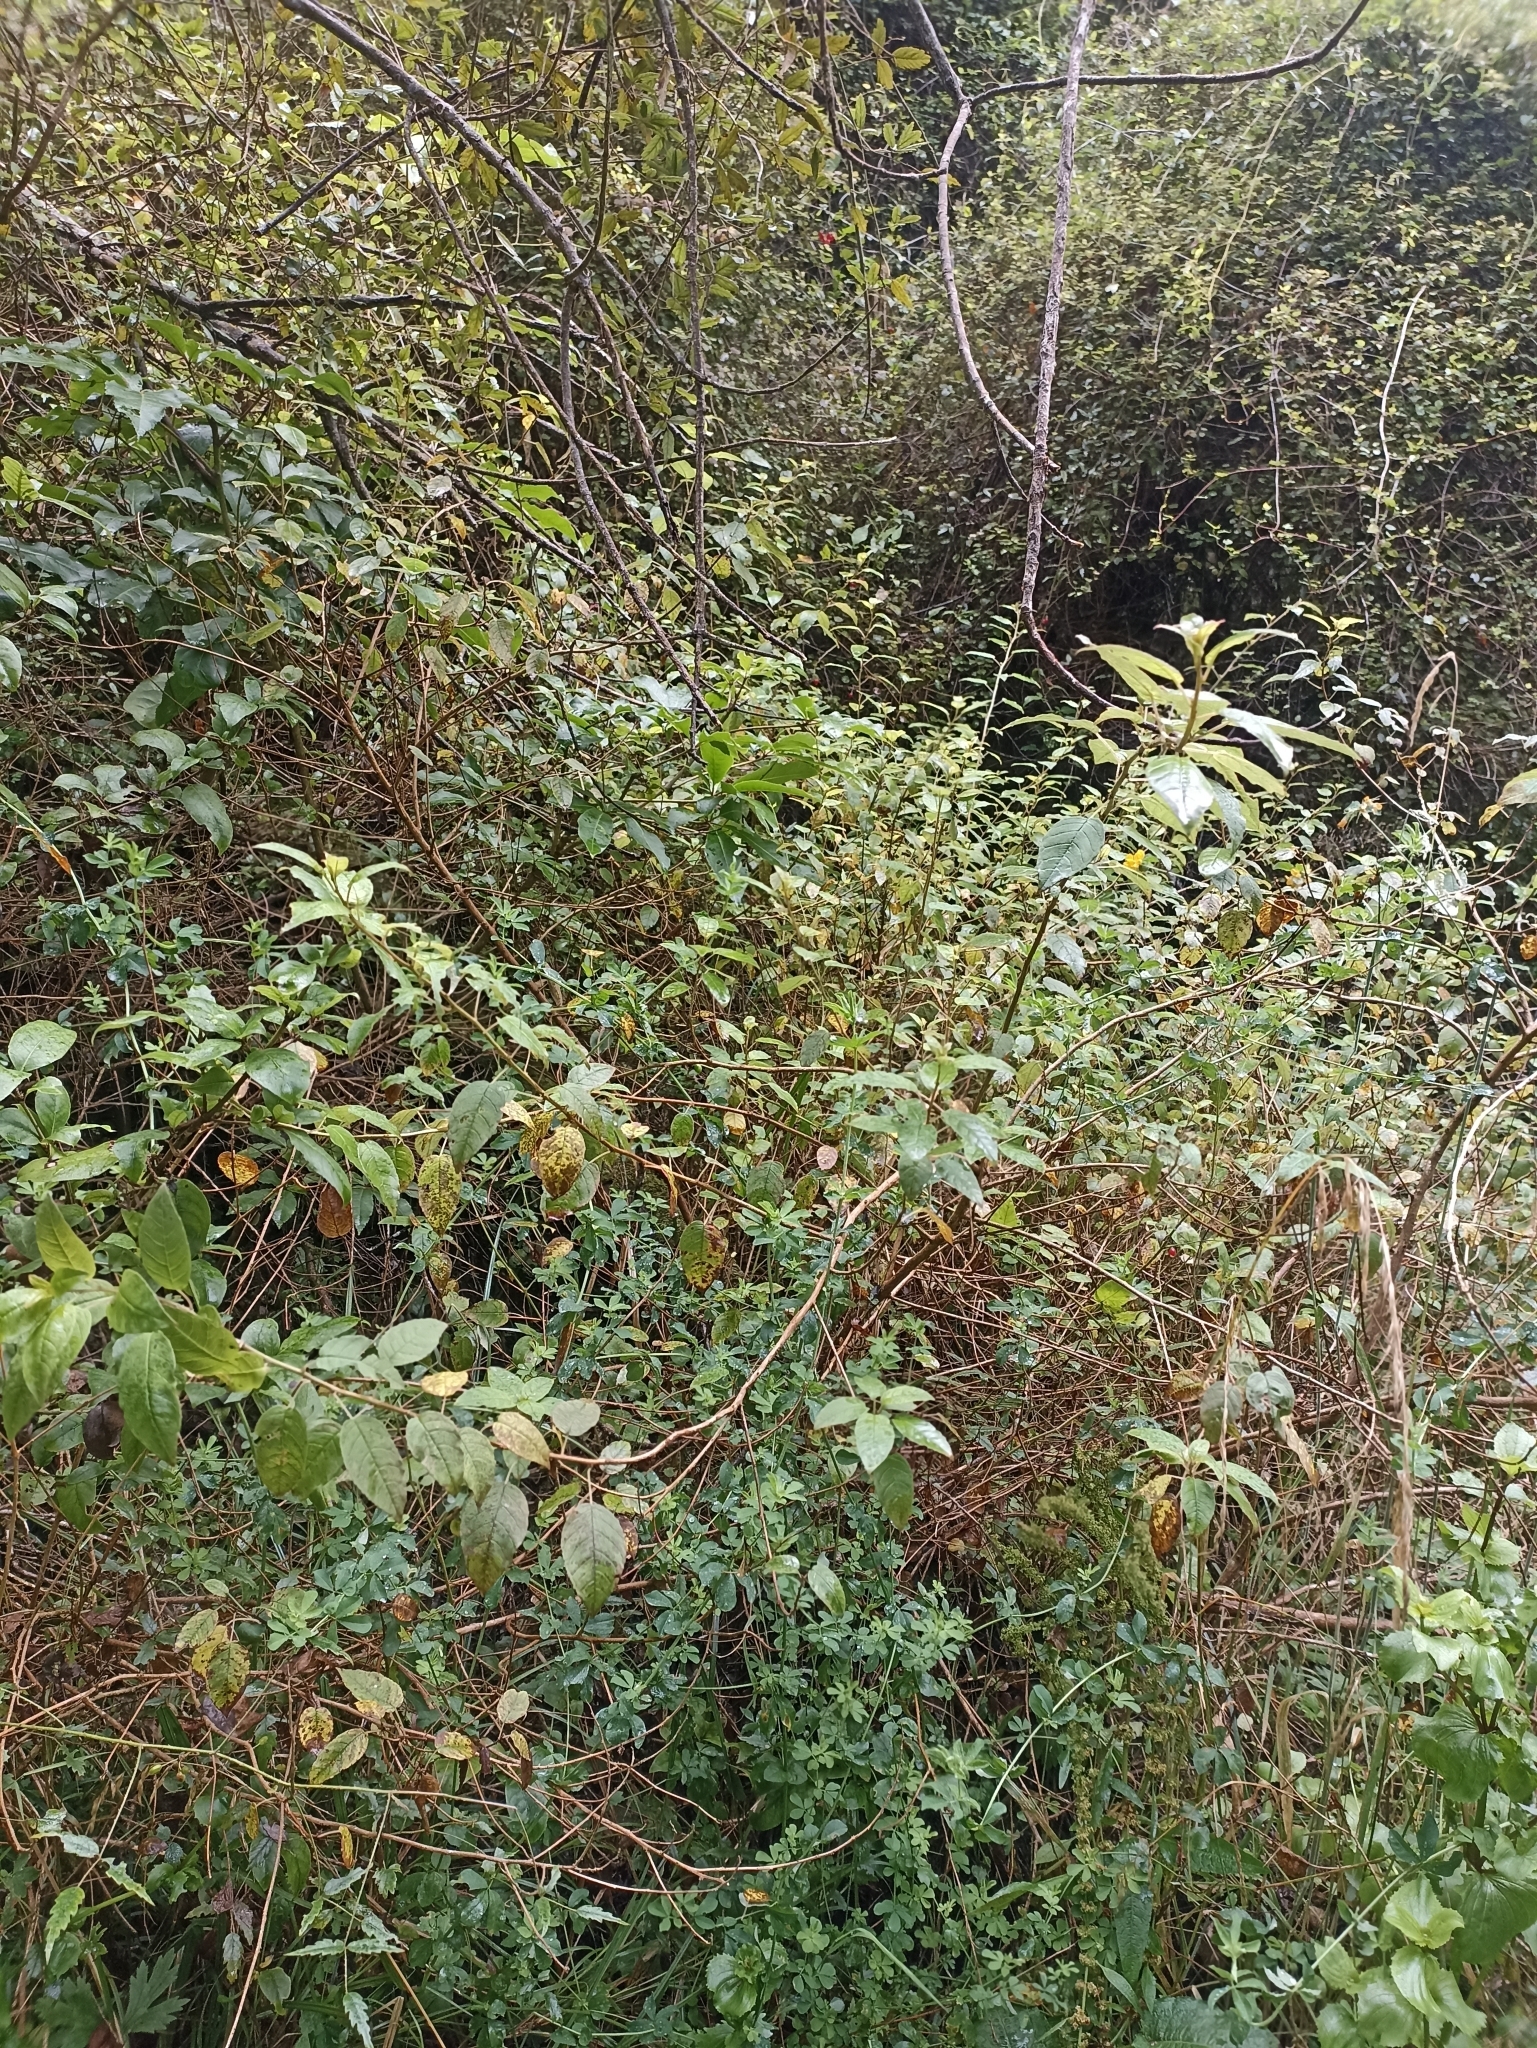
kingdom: Plantae
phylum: Tracheophyta
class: Magnoliopsida
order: Myrtales
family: Onagraceae
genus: Fuchsia
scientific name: Fuchsia colensoi
